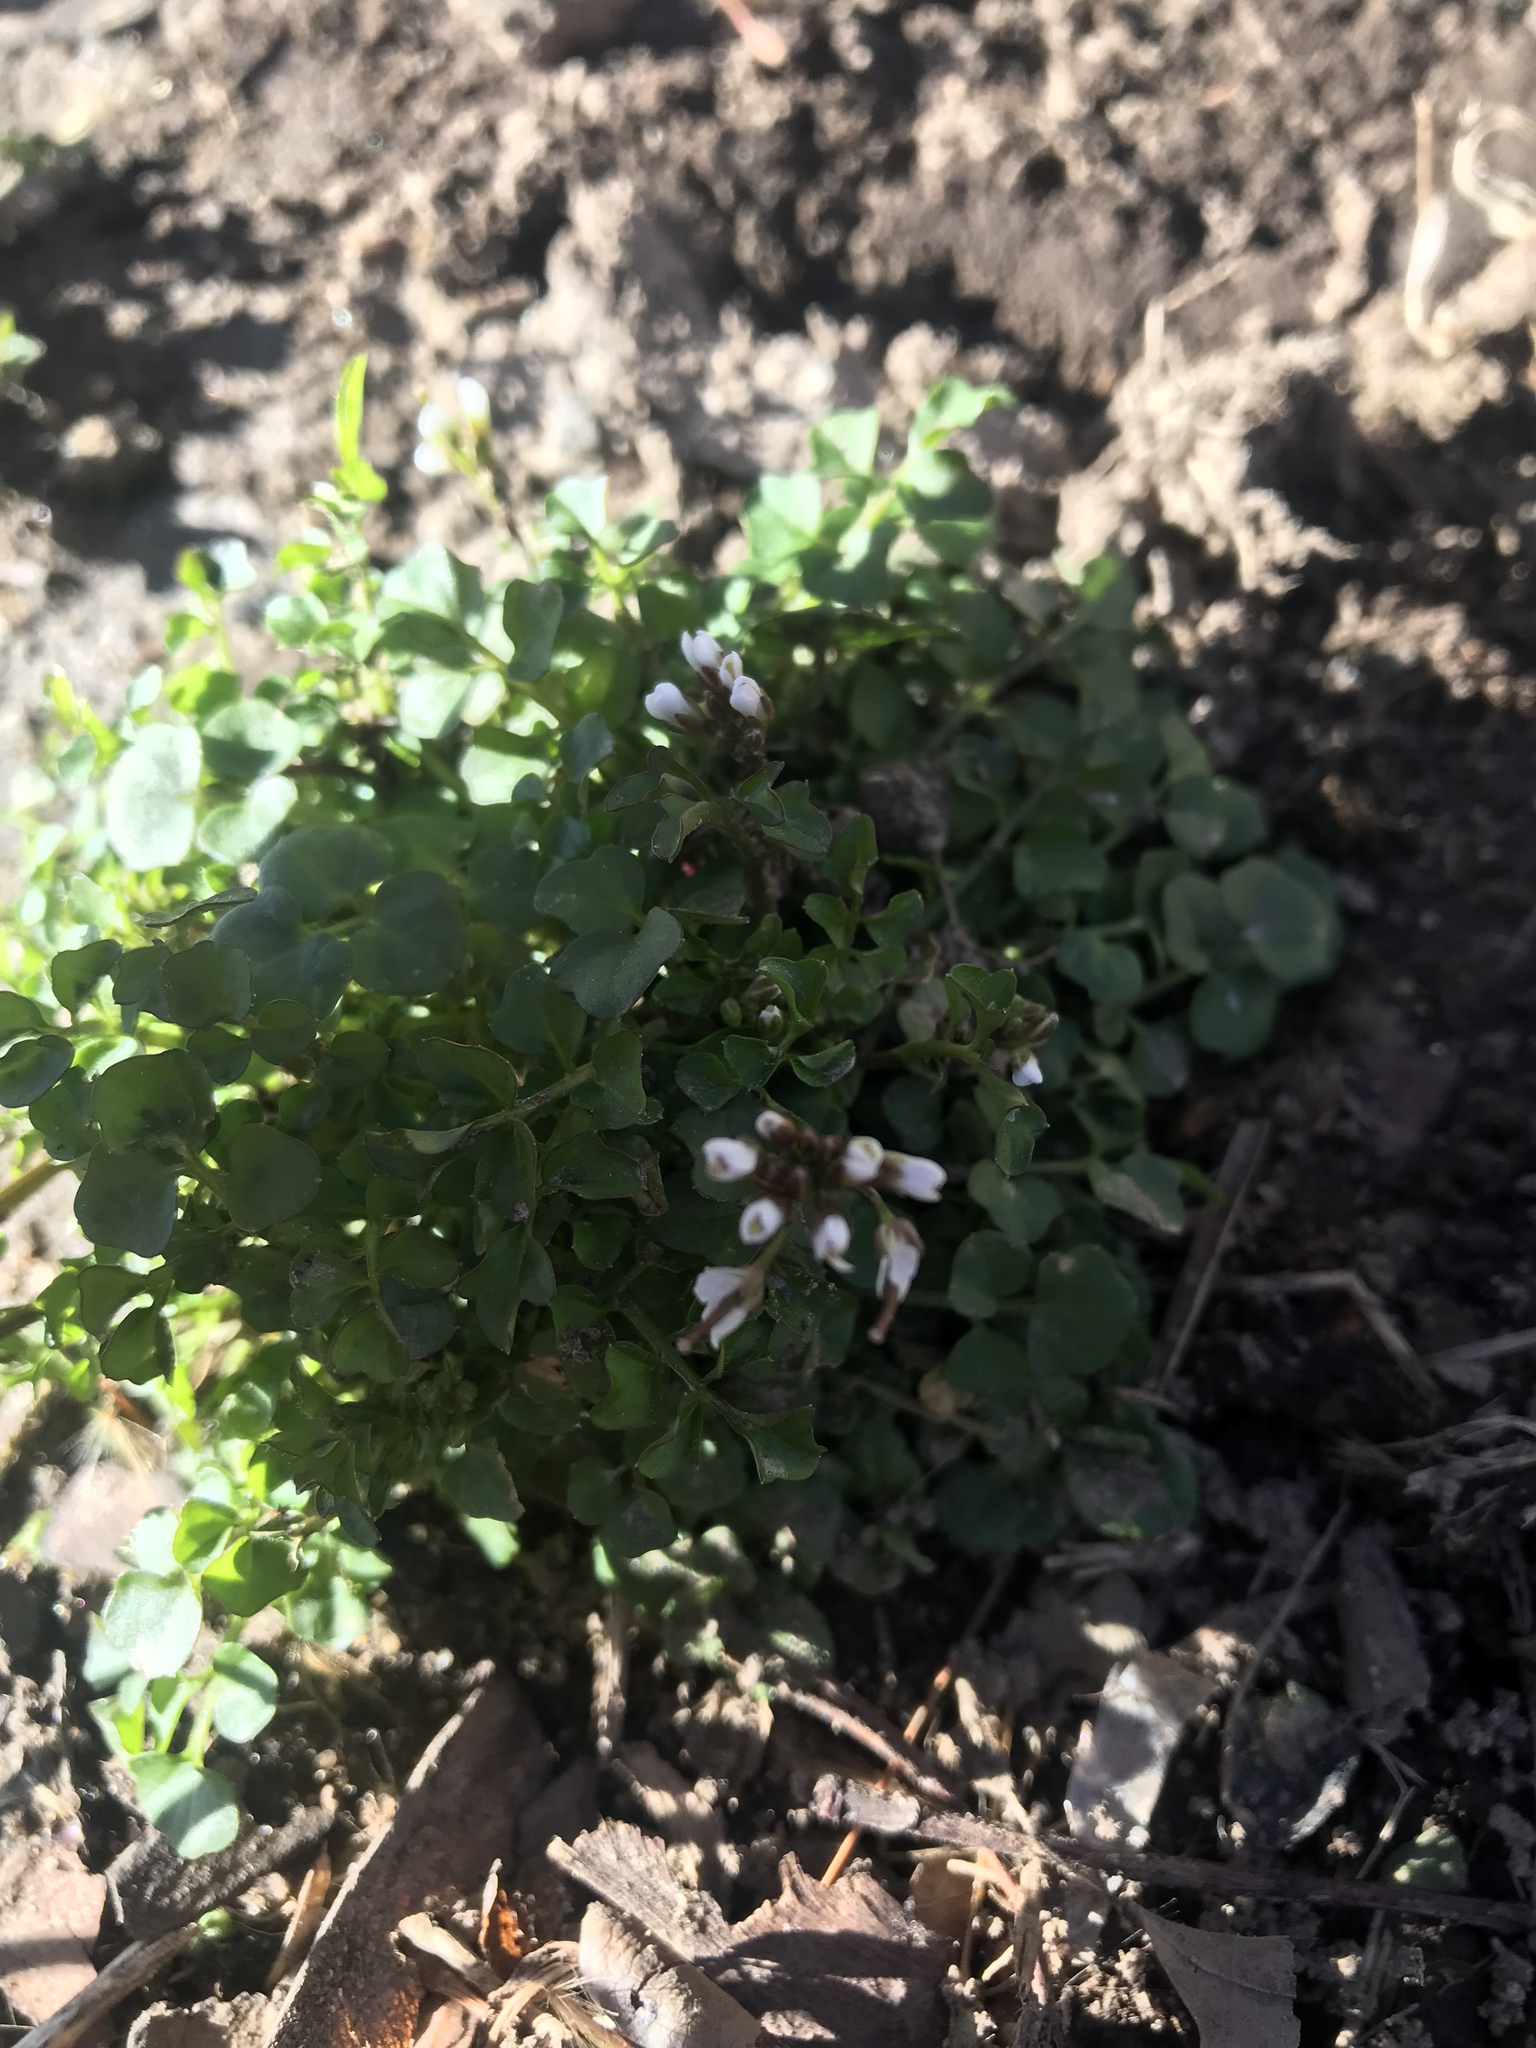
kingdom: Plantae
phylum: Tracheophyta
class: Magnoliopsida
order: Brassicales
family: Brassicaceae
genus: Cardamine
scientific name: Cardamine hirsuta
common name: Hairy bittercress
